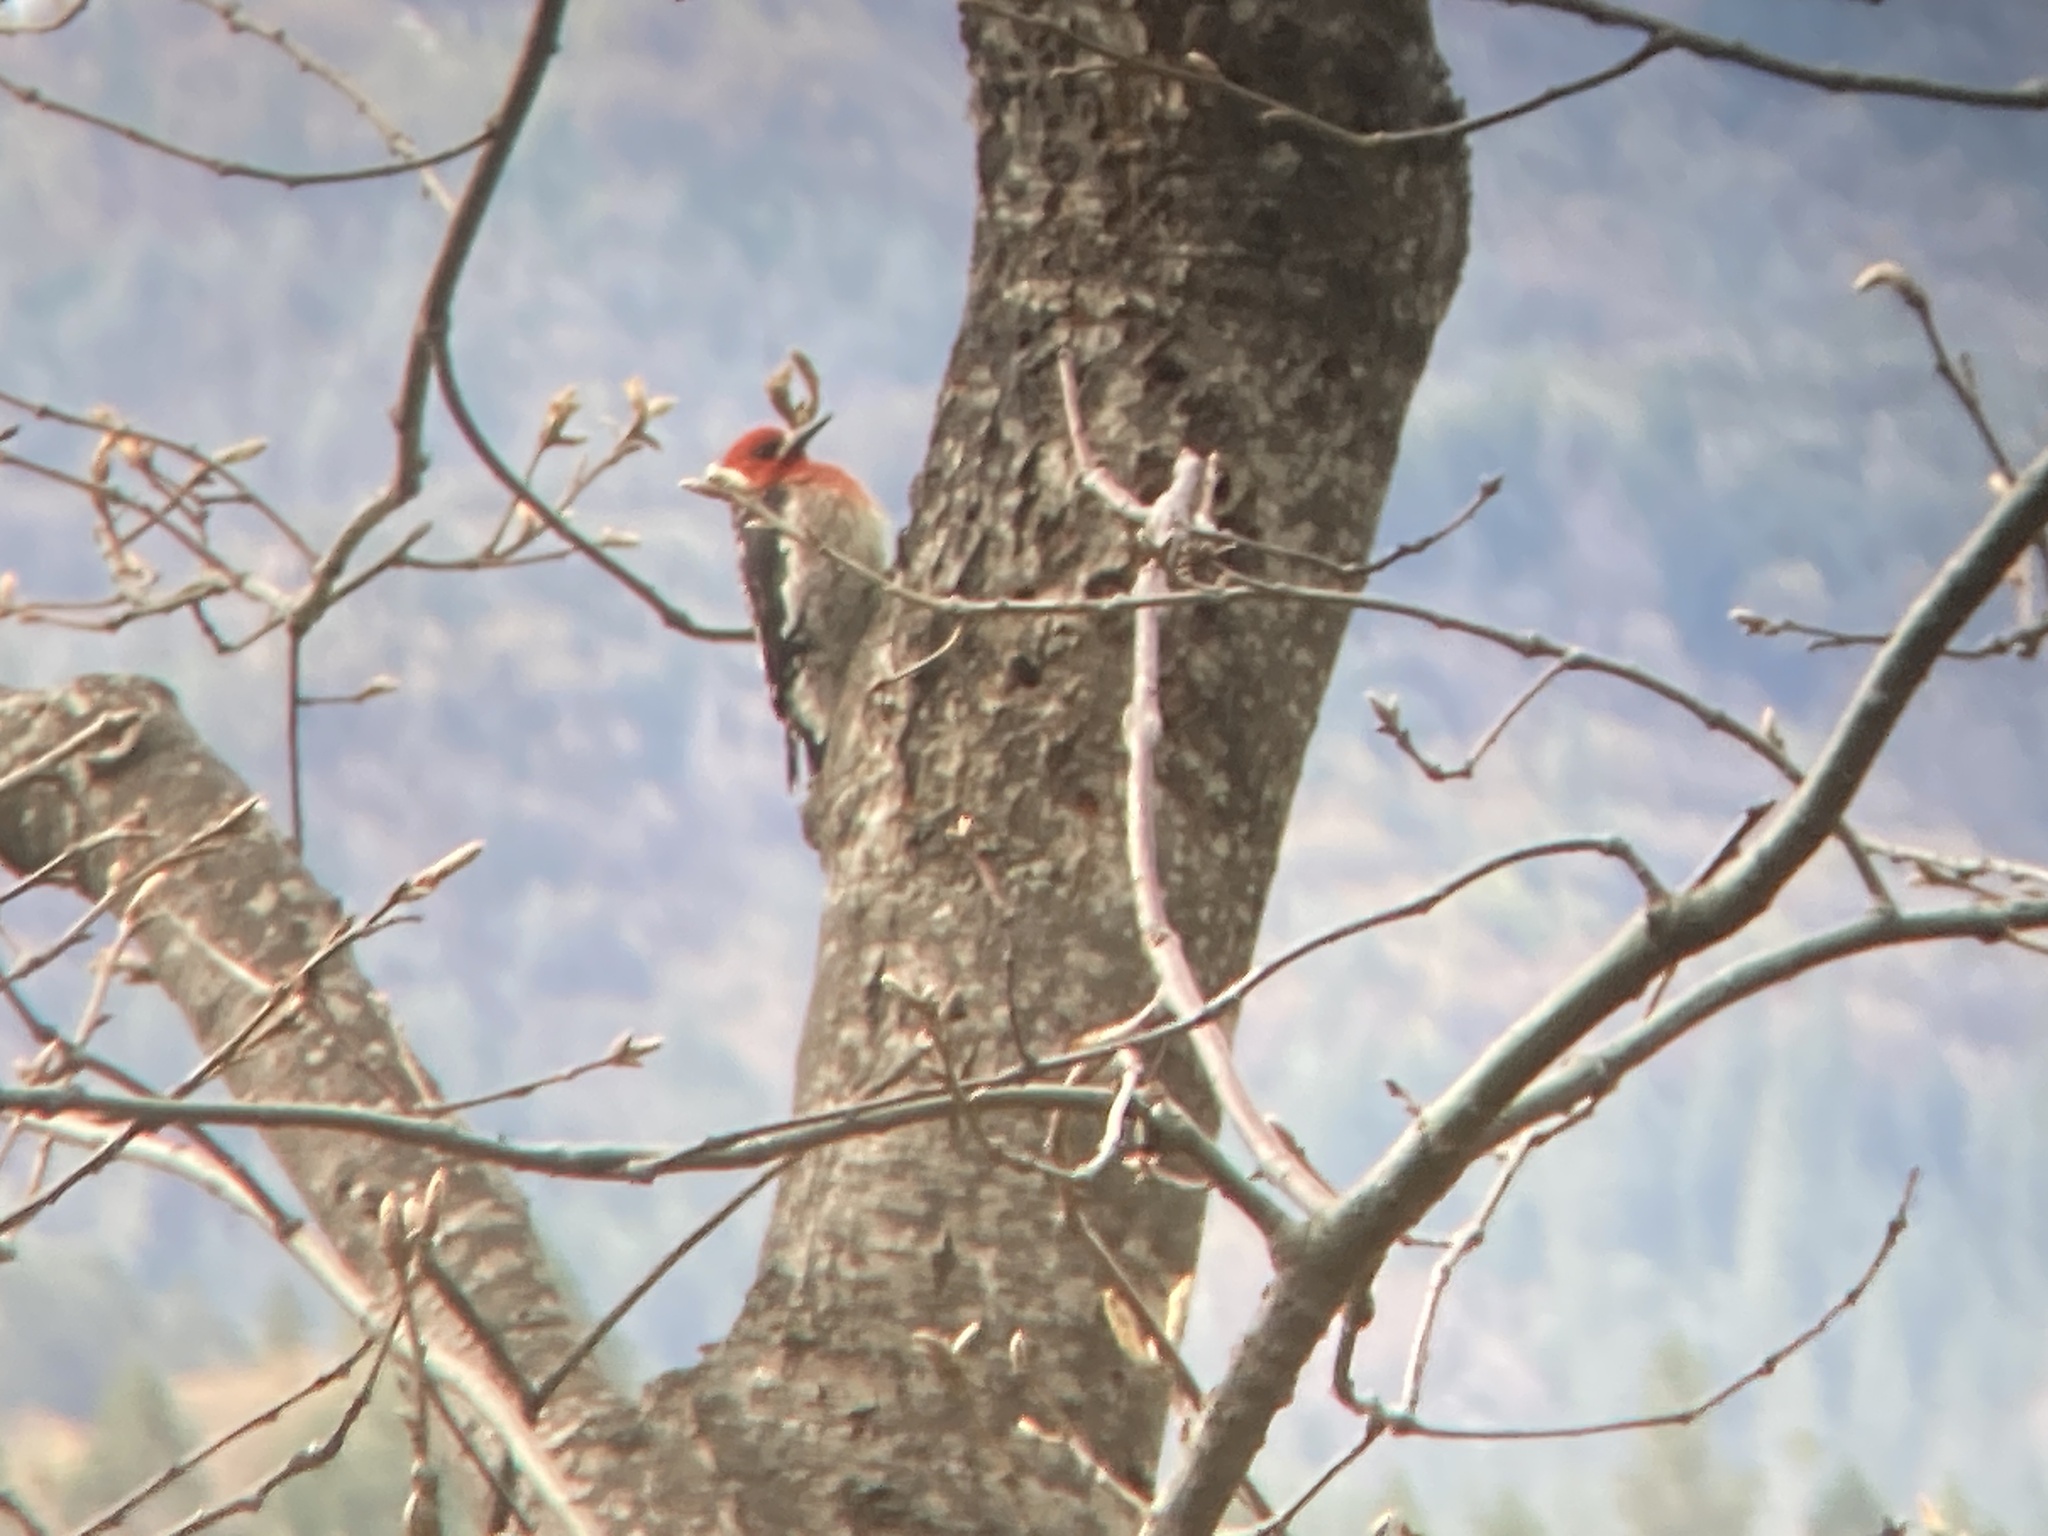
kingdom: Animalia
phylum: Chordata
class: Aves
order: Piciformes
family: Picidae
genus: Sphyrapicus
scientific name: Sphyrapicus ruber
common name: Red-breasted sapsucker
